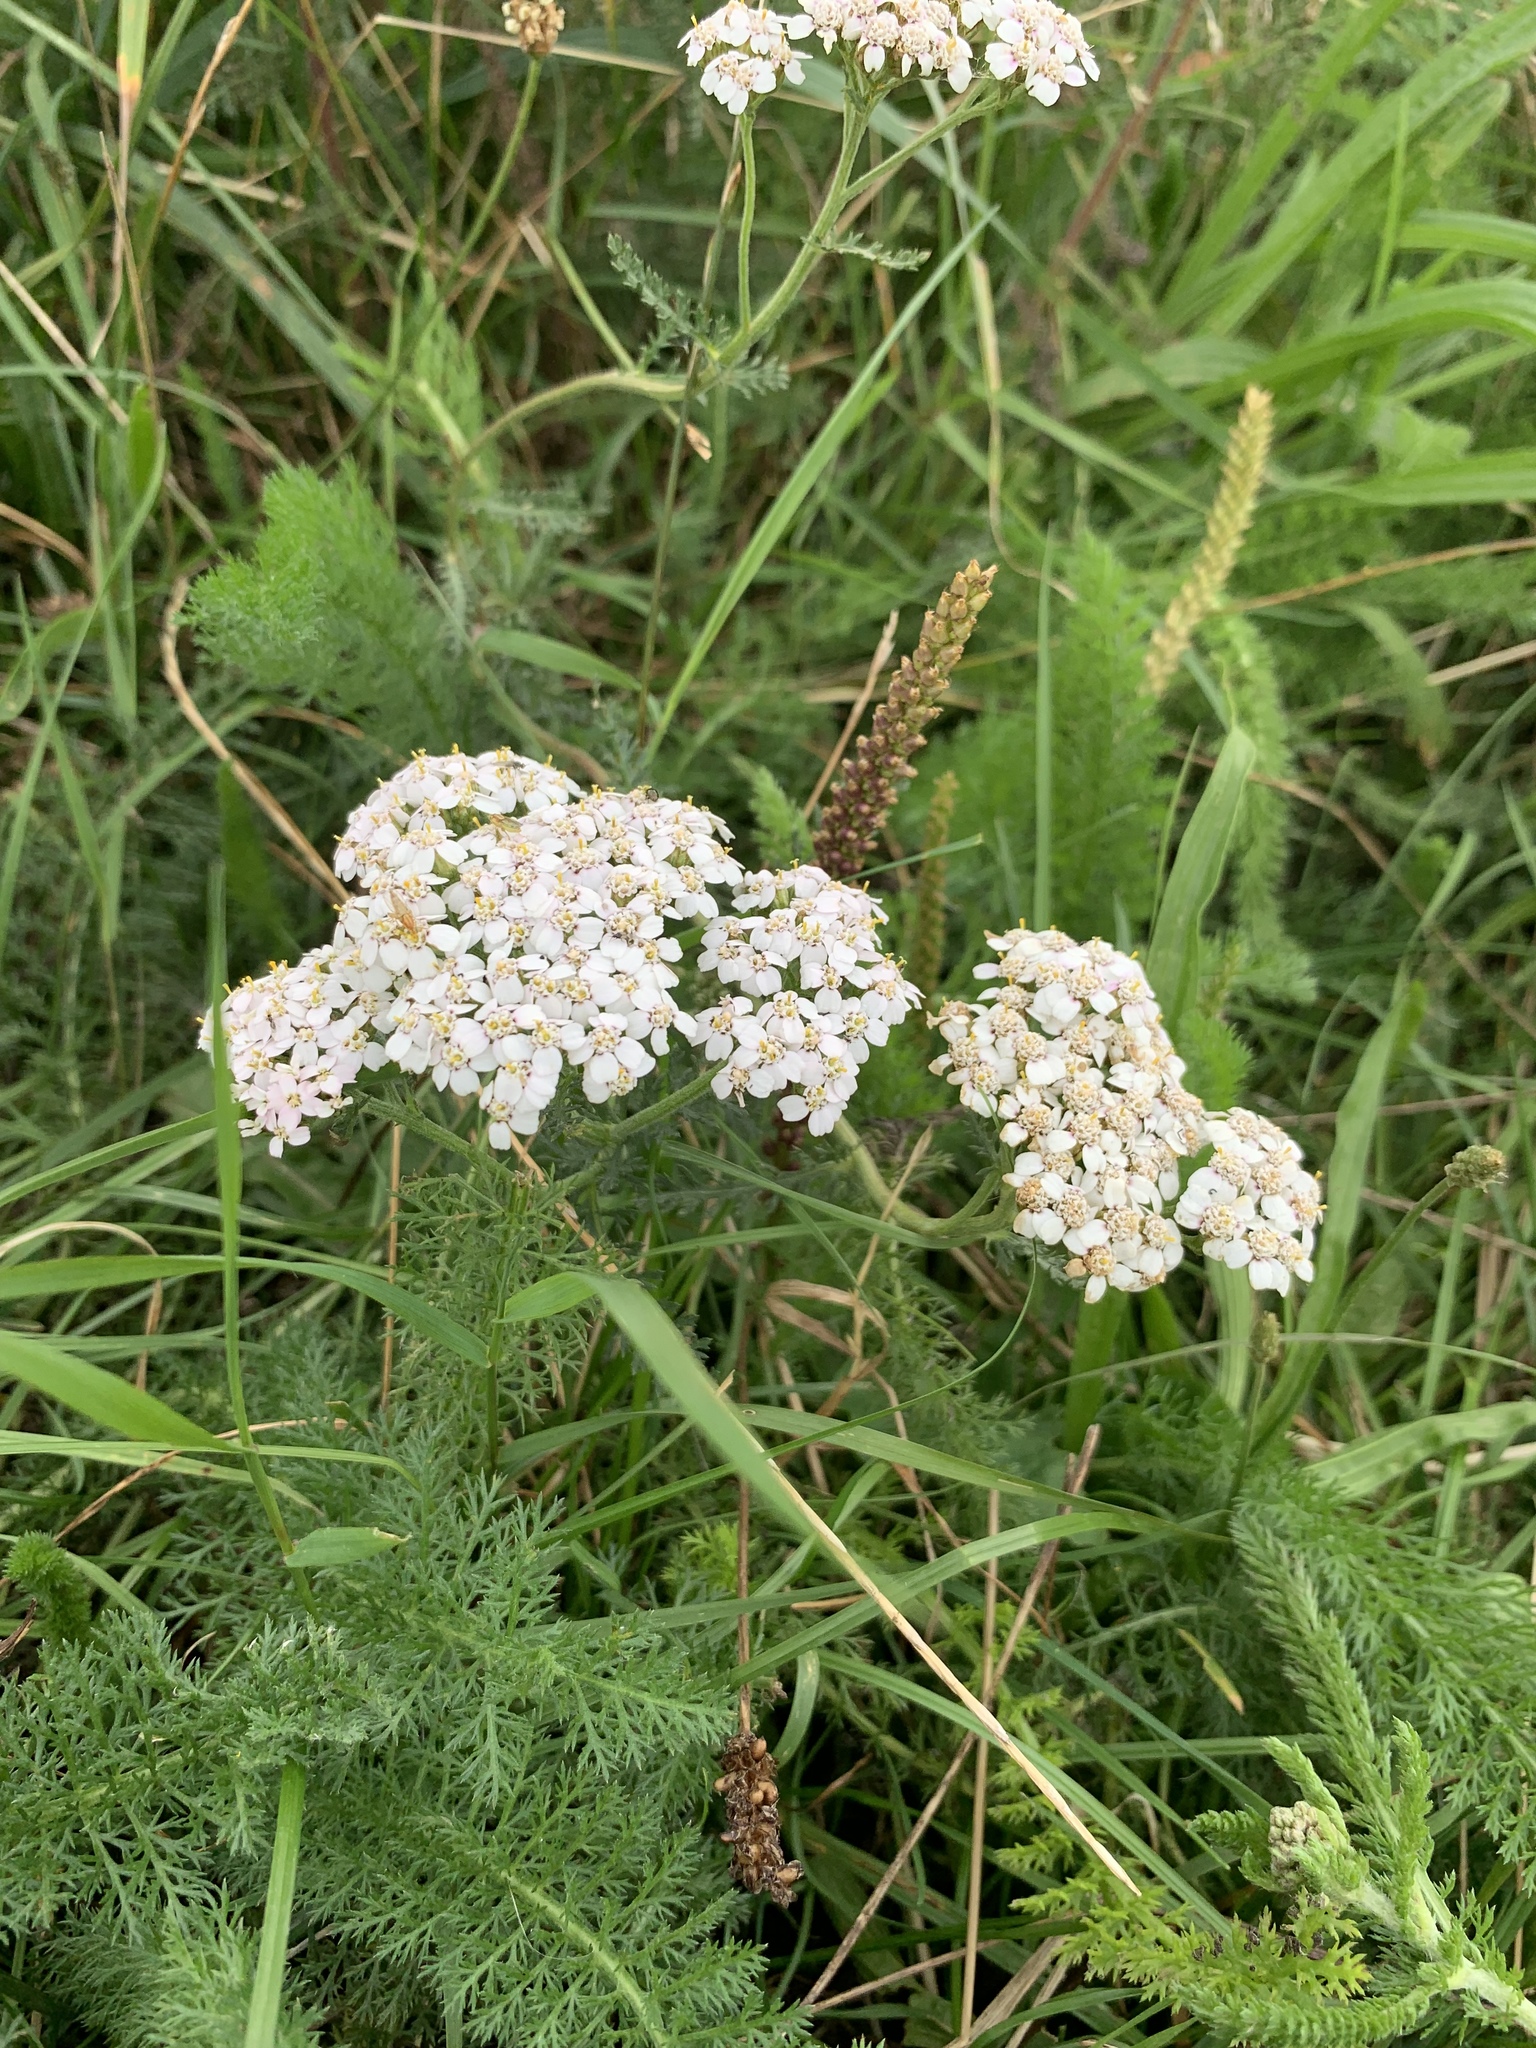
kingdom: Plantae
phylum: Tracheophyta
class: Magnoliopsida
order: Asterales
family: Asteraceae
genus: Achillea
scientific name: Achillea millefolium
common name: Yarrow
